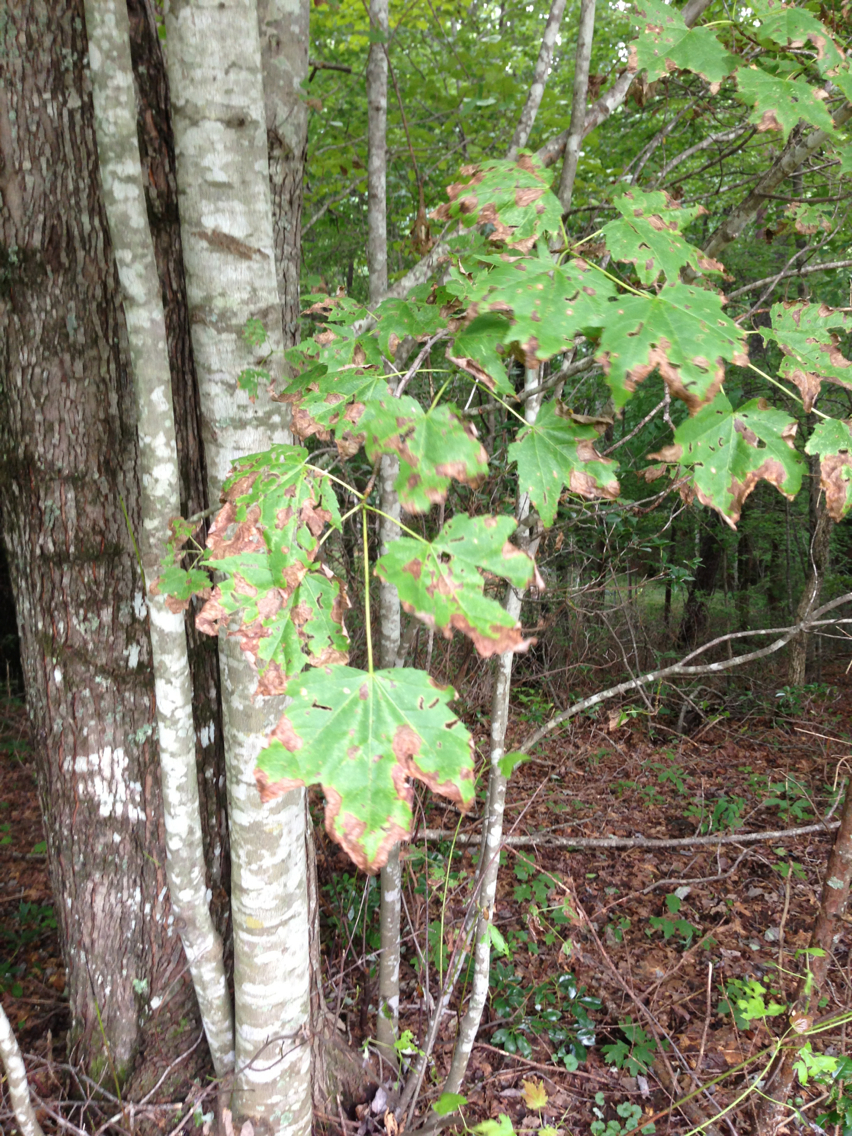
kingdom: Plantae
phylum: Tracheophyta
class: Magnoliopsida
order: Sapindales
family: Sapindaceae
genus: Acer
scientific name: Acer saccharum
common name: Sugar maple
